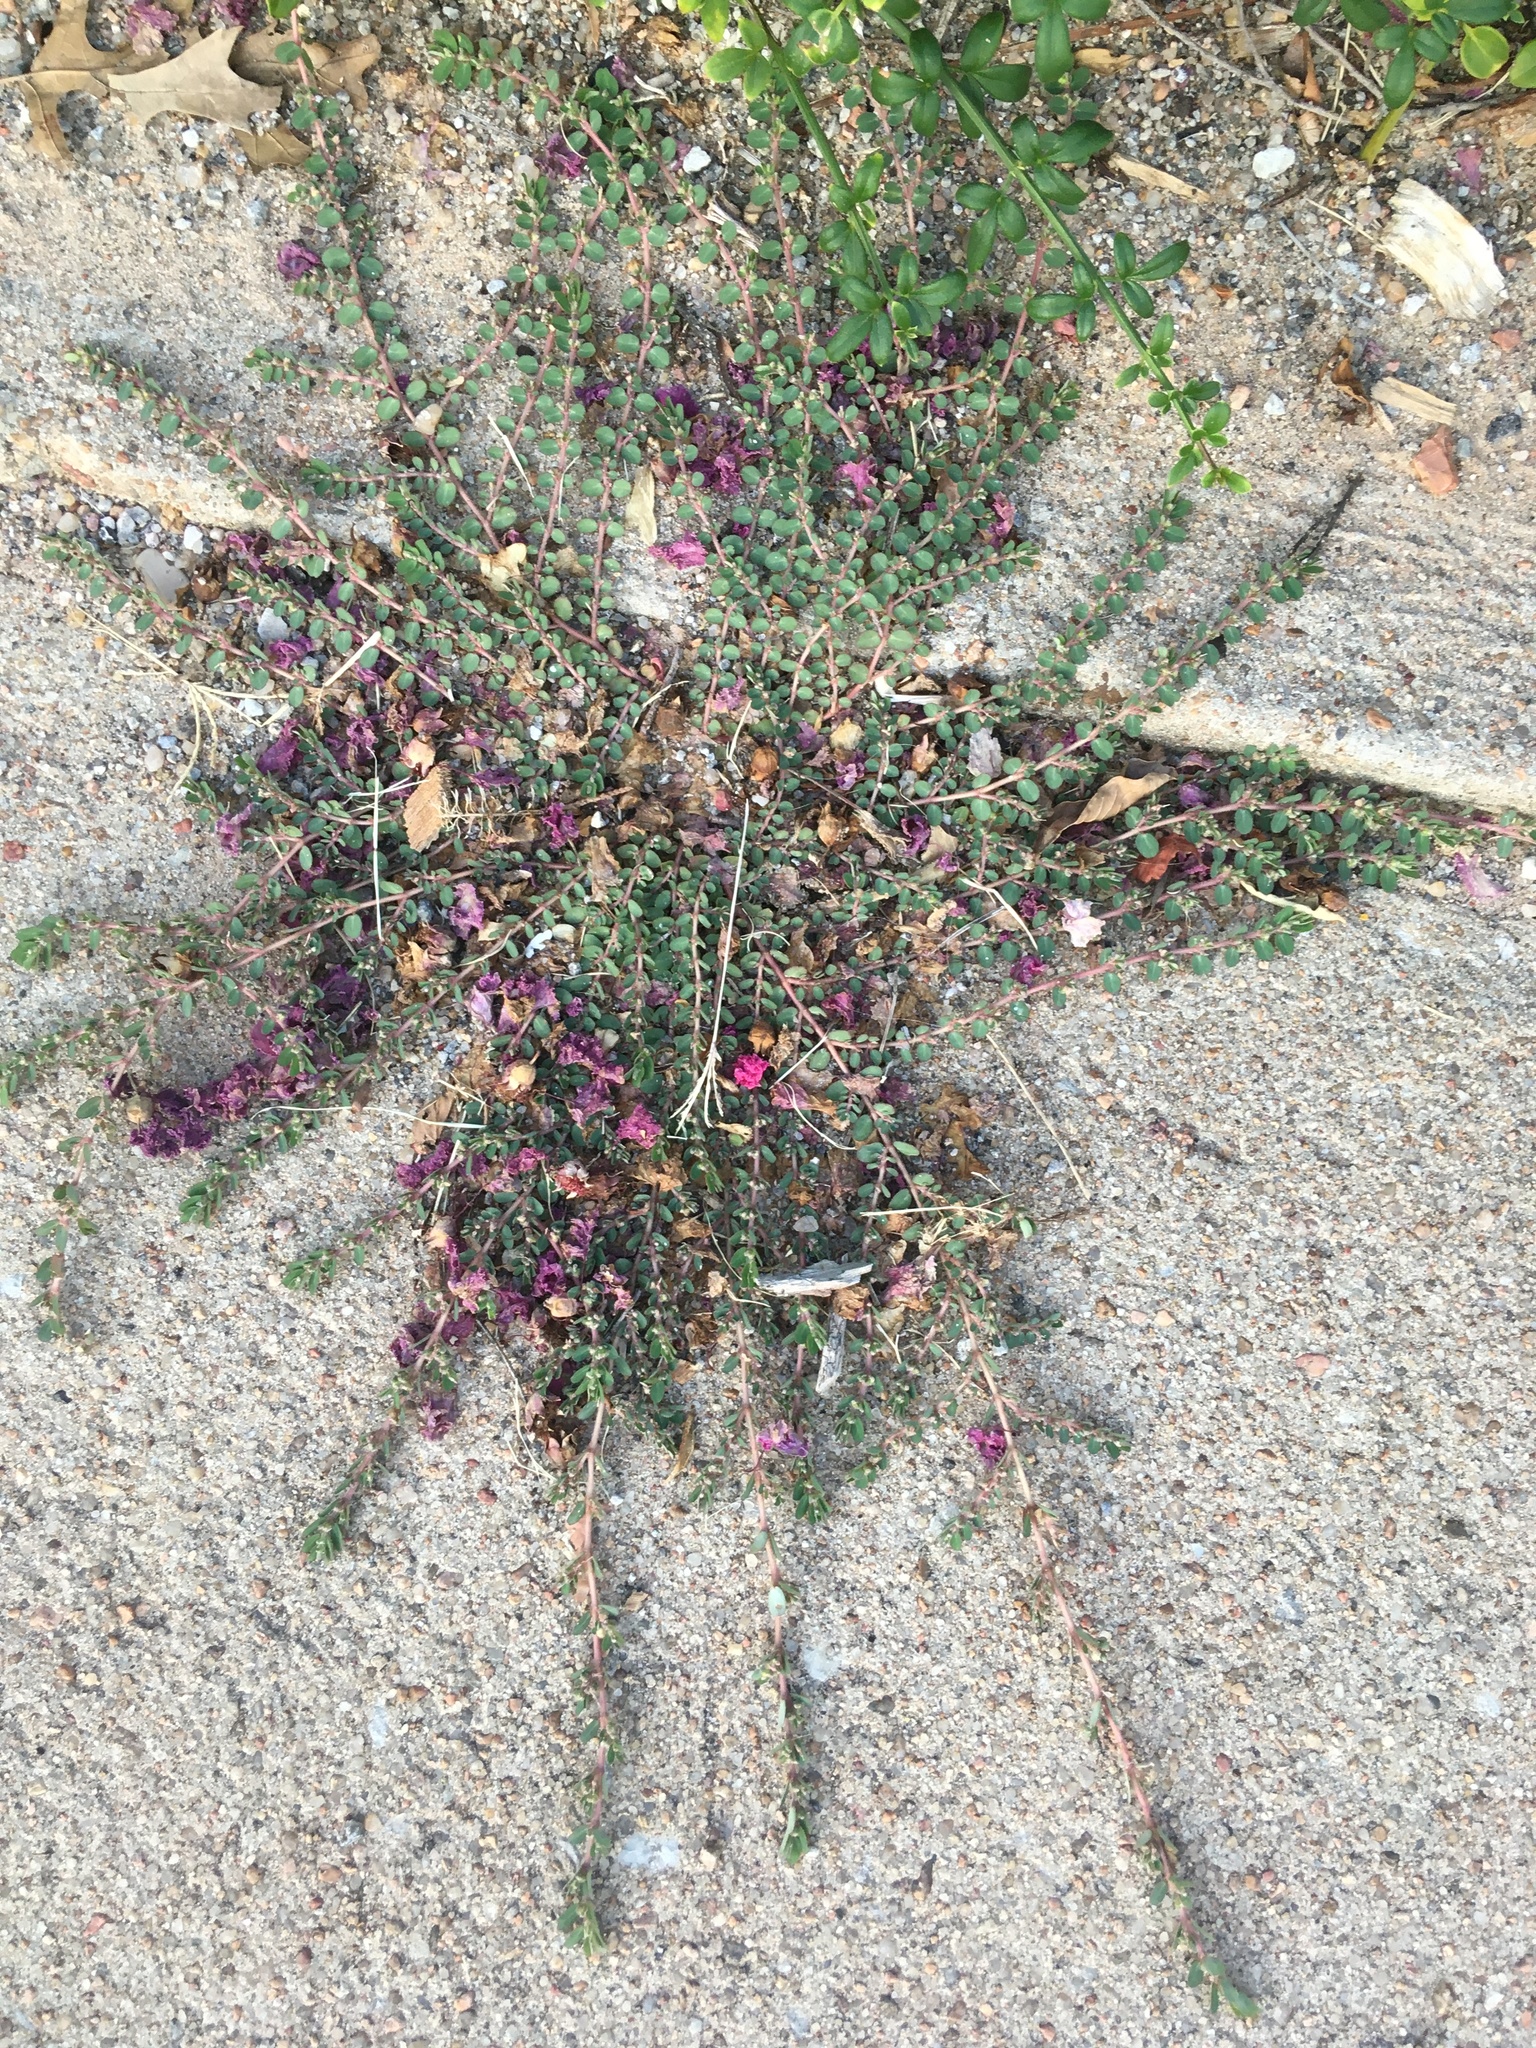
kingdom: Plantae
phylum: Tracheophyta
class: Magnoliopsida
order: Malpighiales
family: Euphorbiaceae
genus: Euphorbia
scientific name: Euphorbia prostrata
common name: Prostrate sandmat
